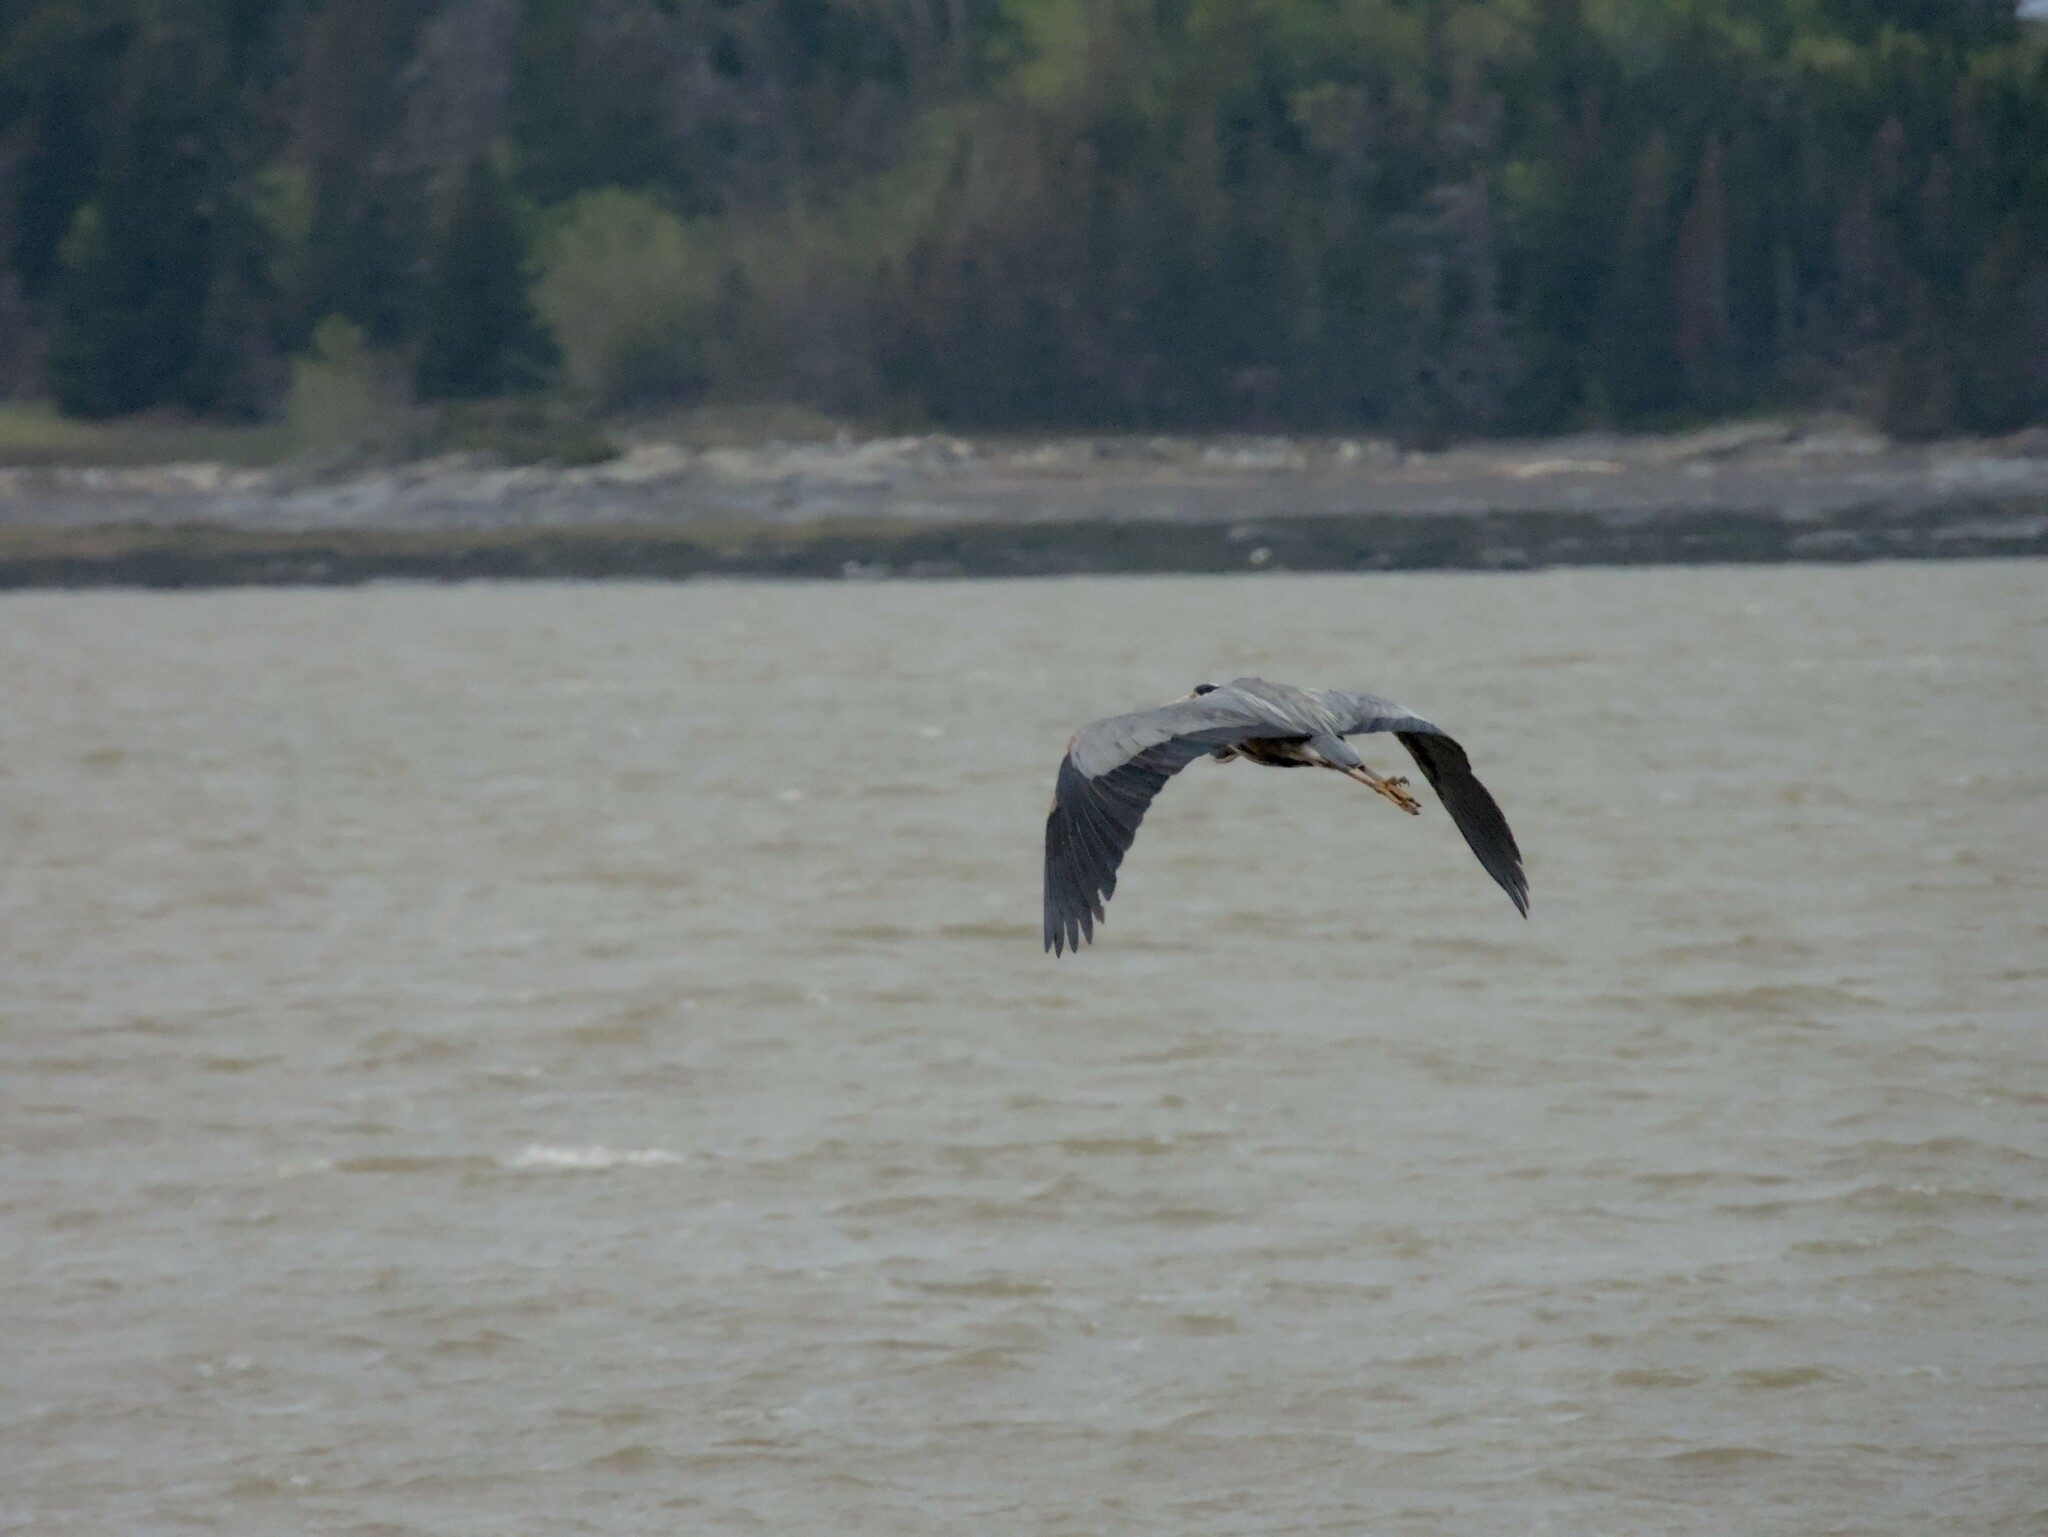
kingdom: Animalia
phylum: Chordata
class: Aves
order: Pelecaniformes
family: Ardeidae
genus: Ardea
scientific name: Ardea herodias
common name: Great blue heron
